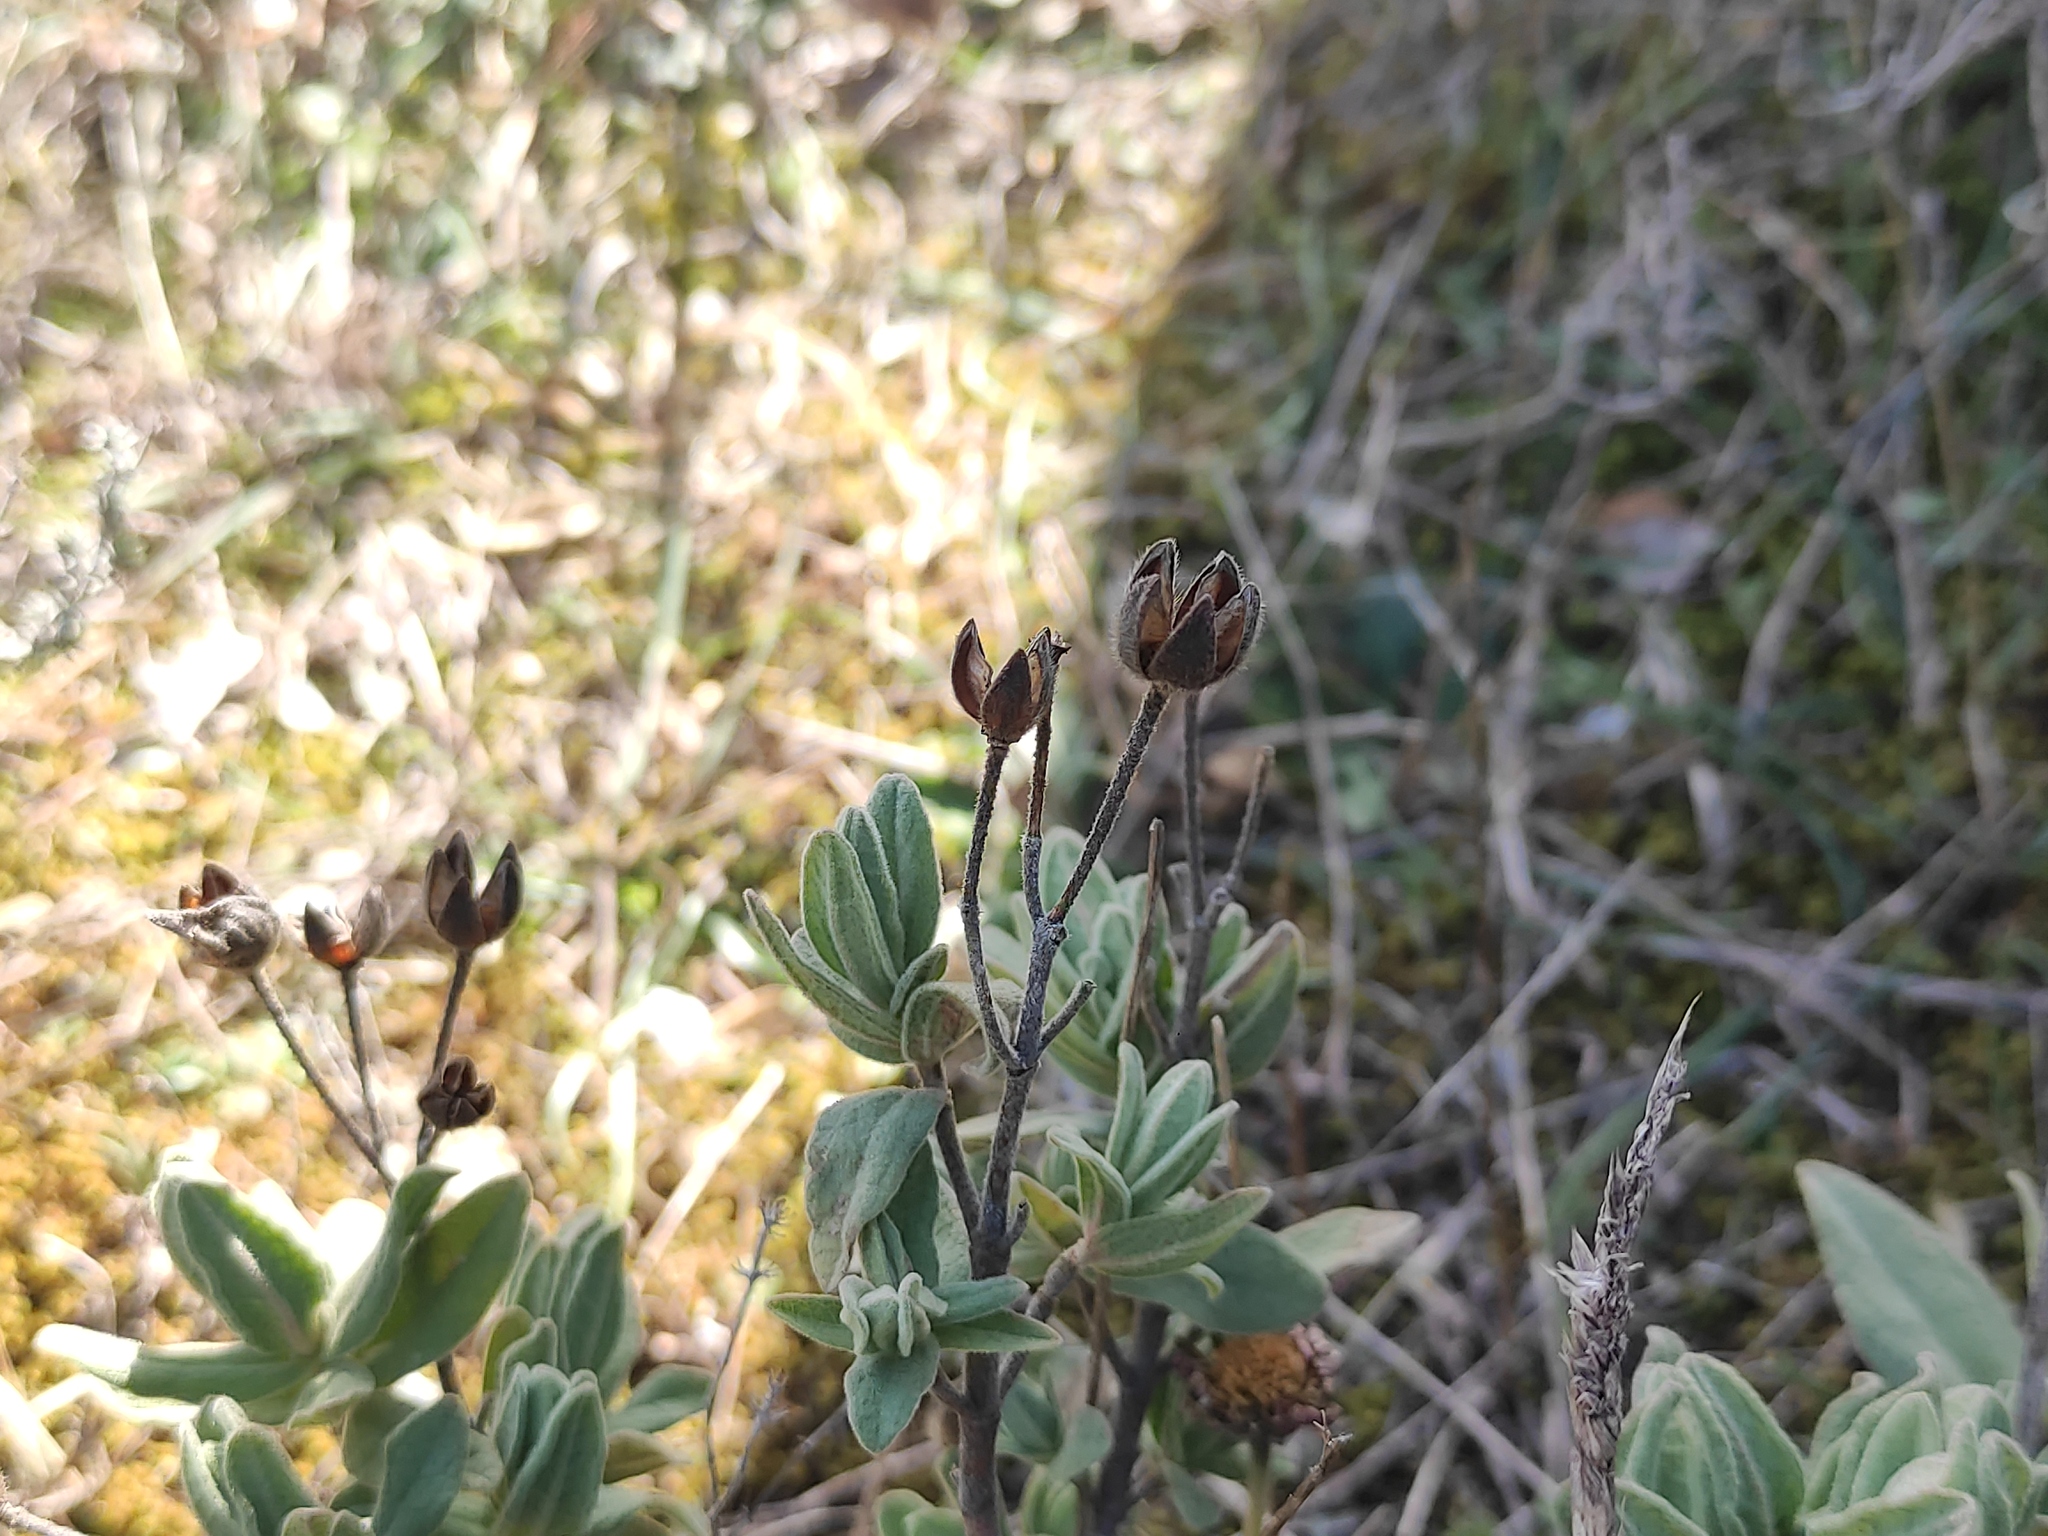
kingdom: Plantae
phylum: Tracheophyta
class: Magnoliopsida
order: Malvales
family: Cistaceae
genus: Cistus
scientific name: Cistus albidus
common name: White-leaf rock-rose
